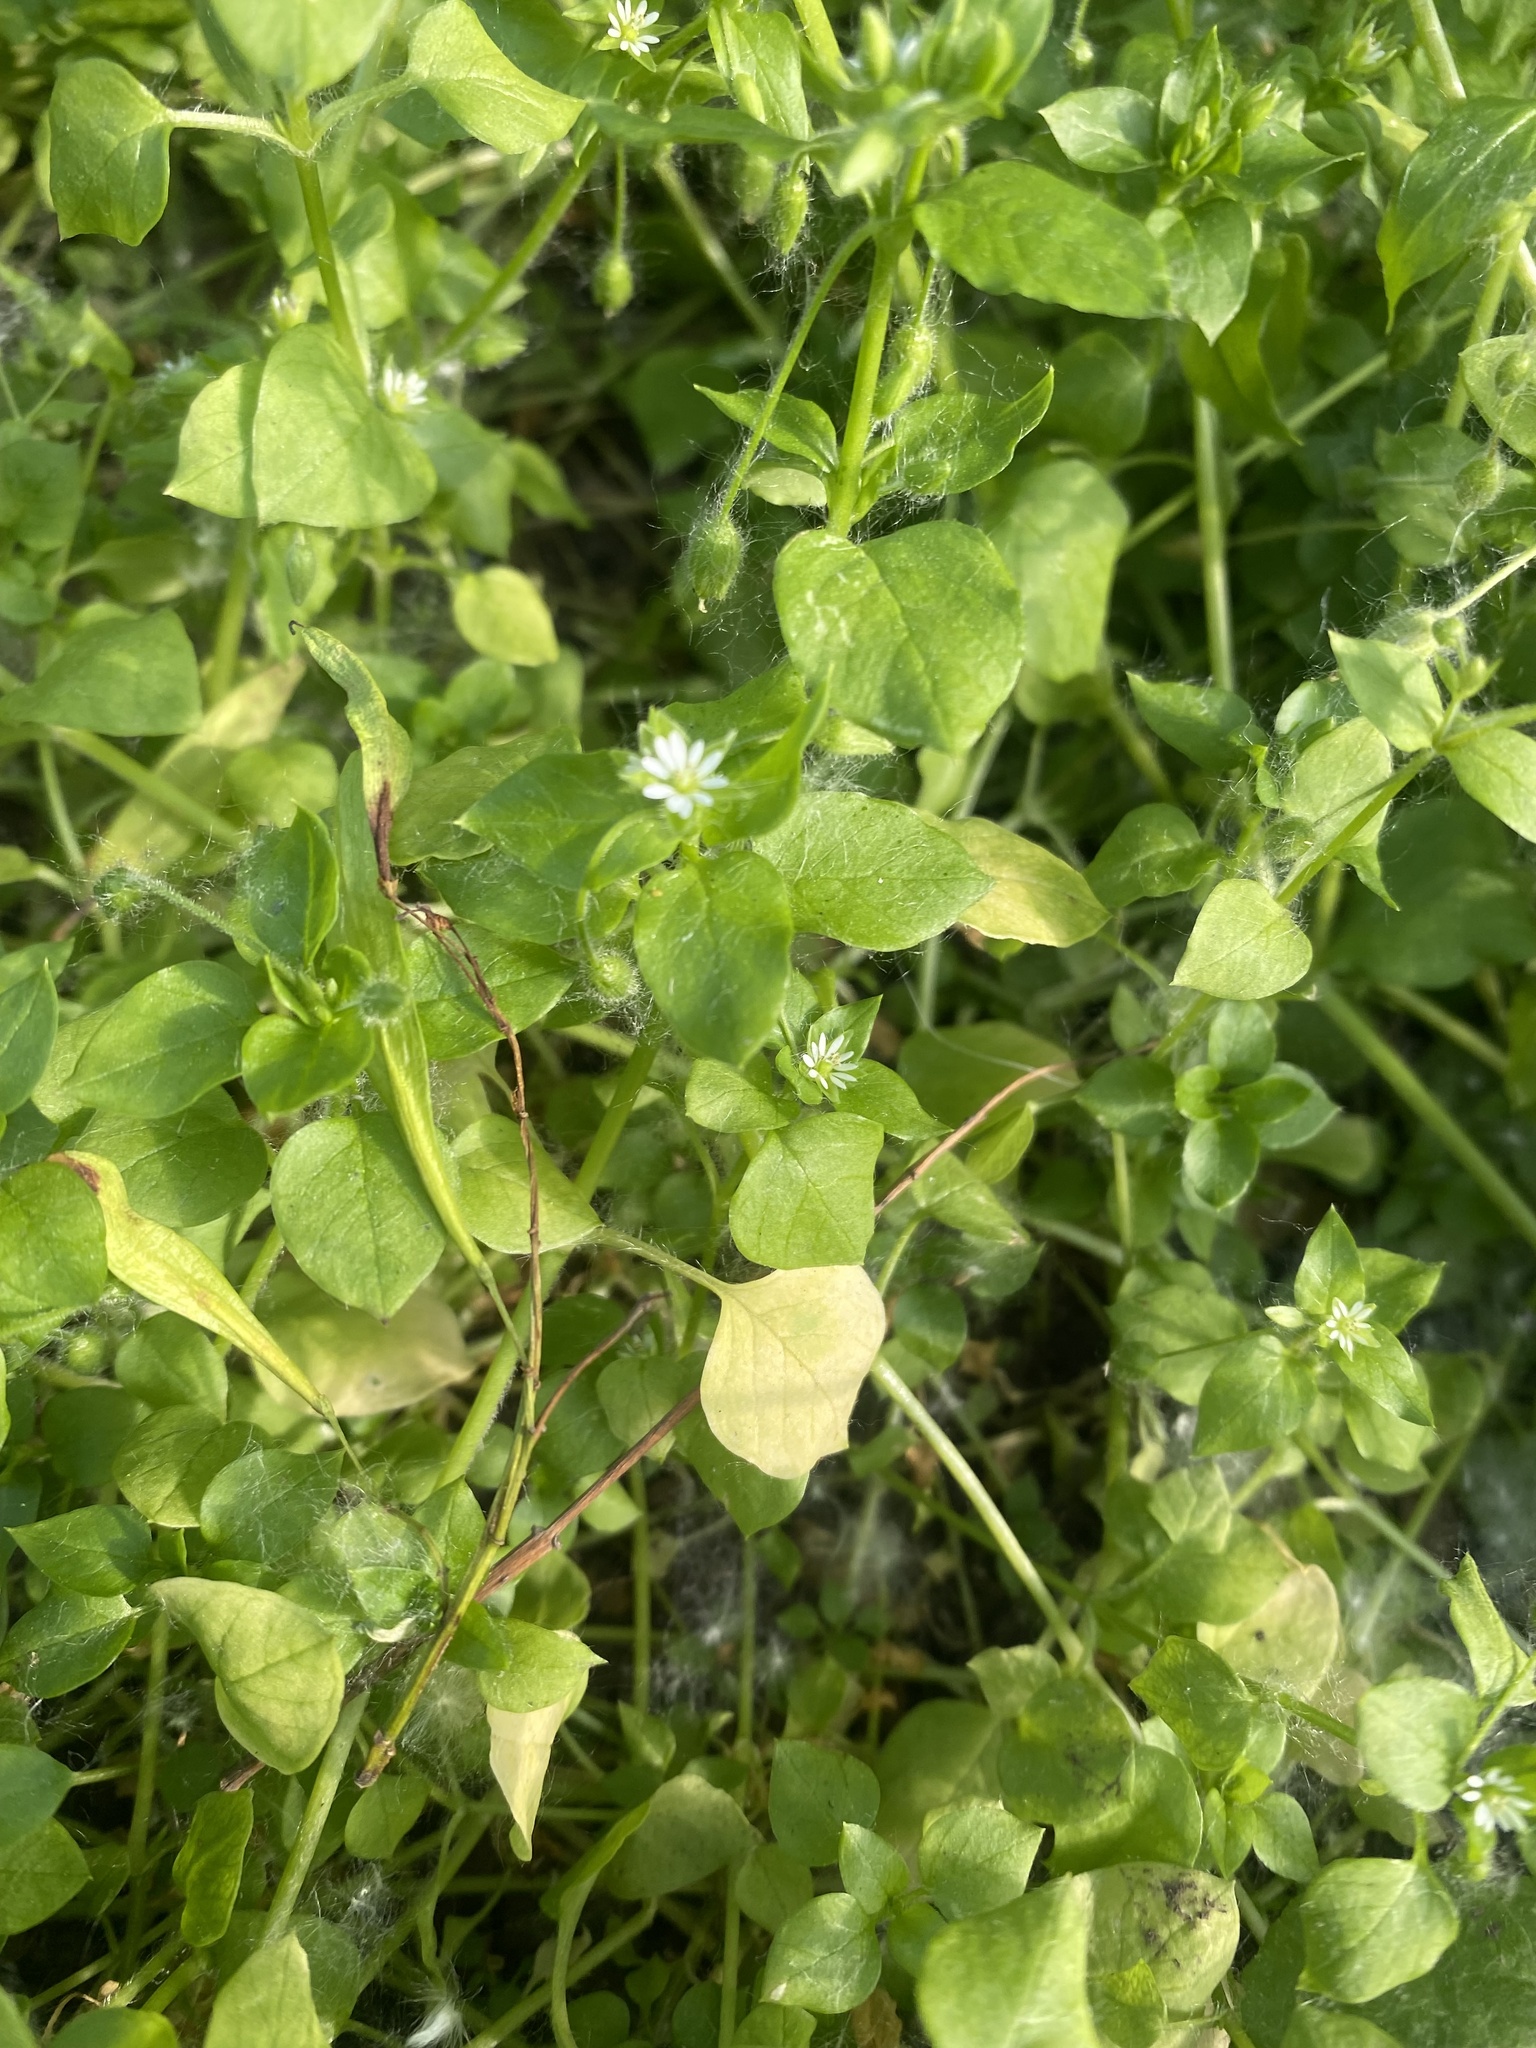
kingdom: Plantae
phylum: Tracheophyta
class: Magnoliopsida
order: Caryophyllales
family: Caryophyllaceae
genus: Stellaria
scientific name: Stellaria media
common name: Common chickweed
